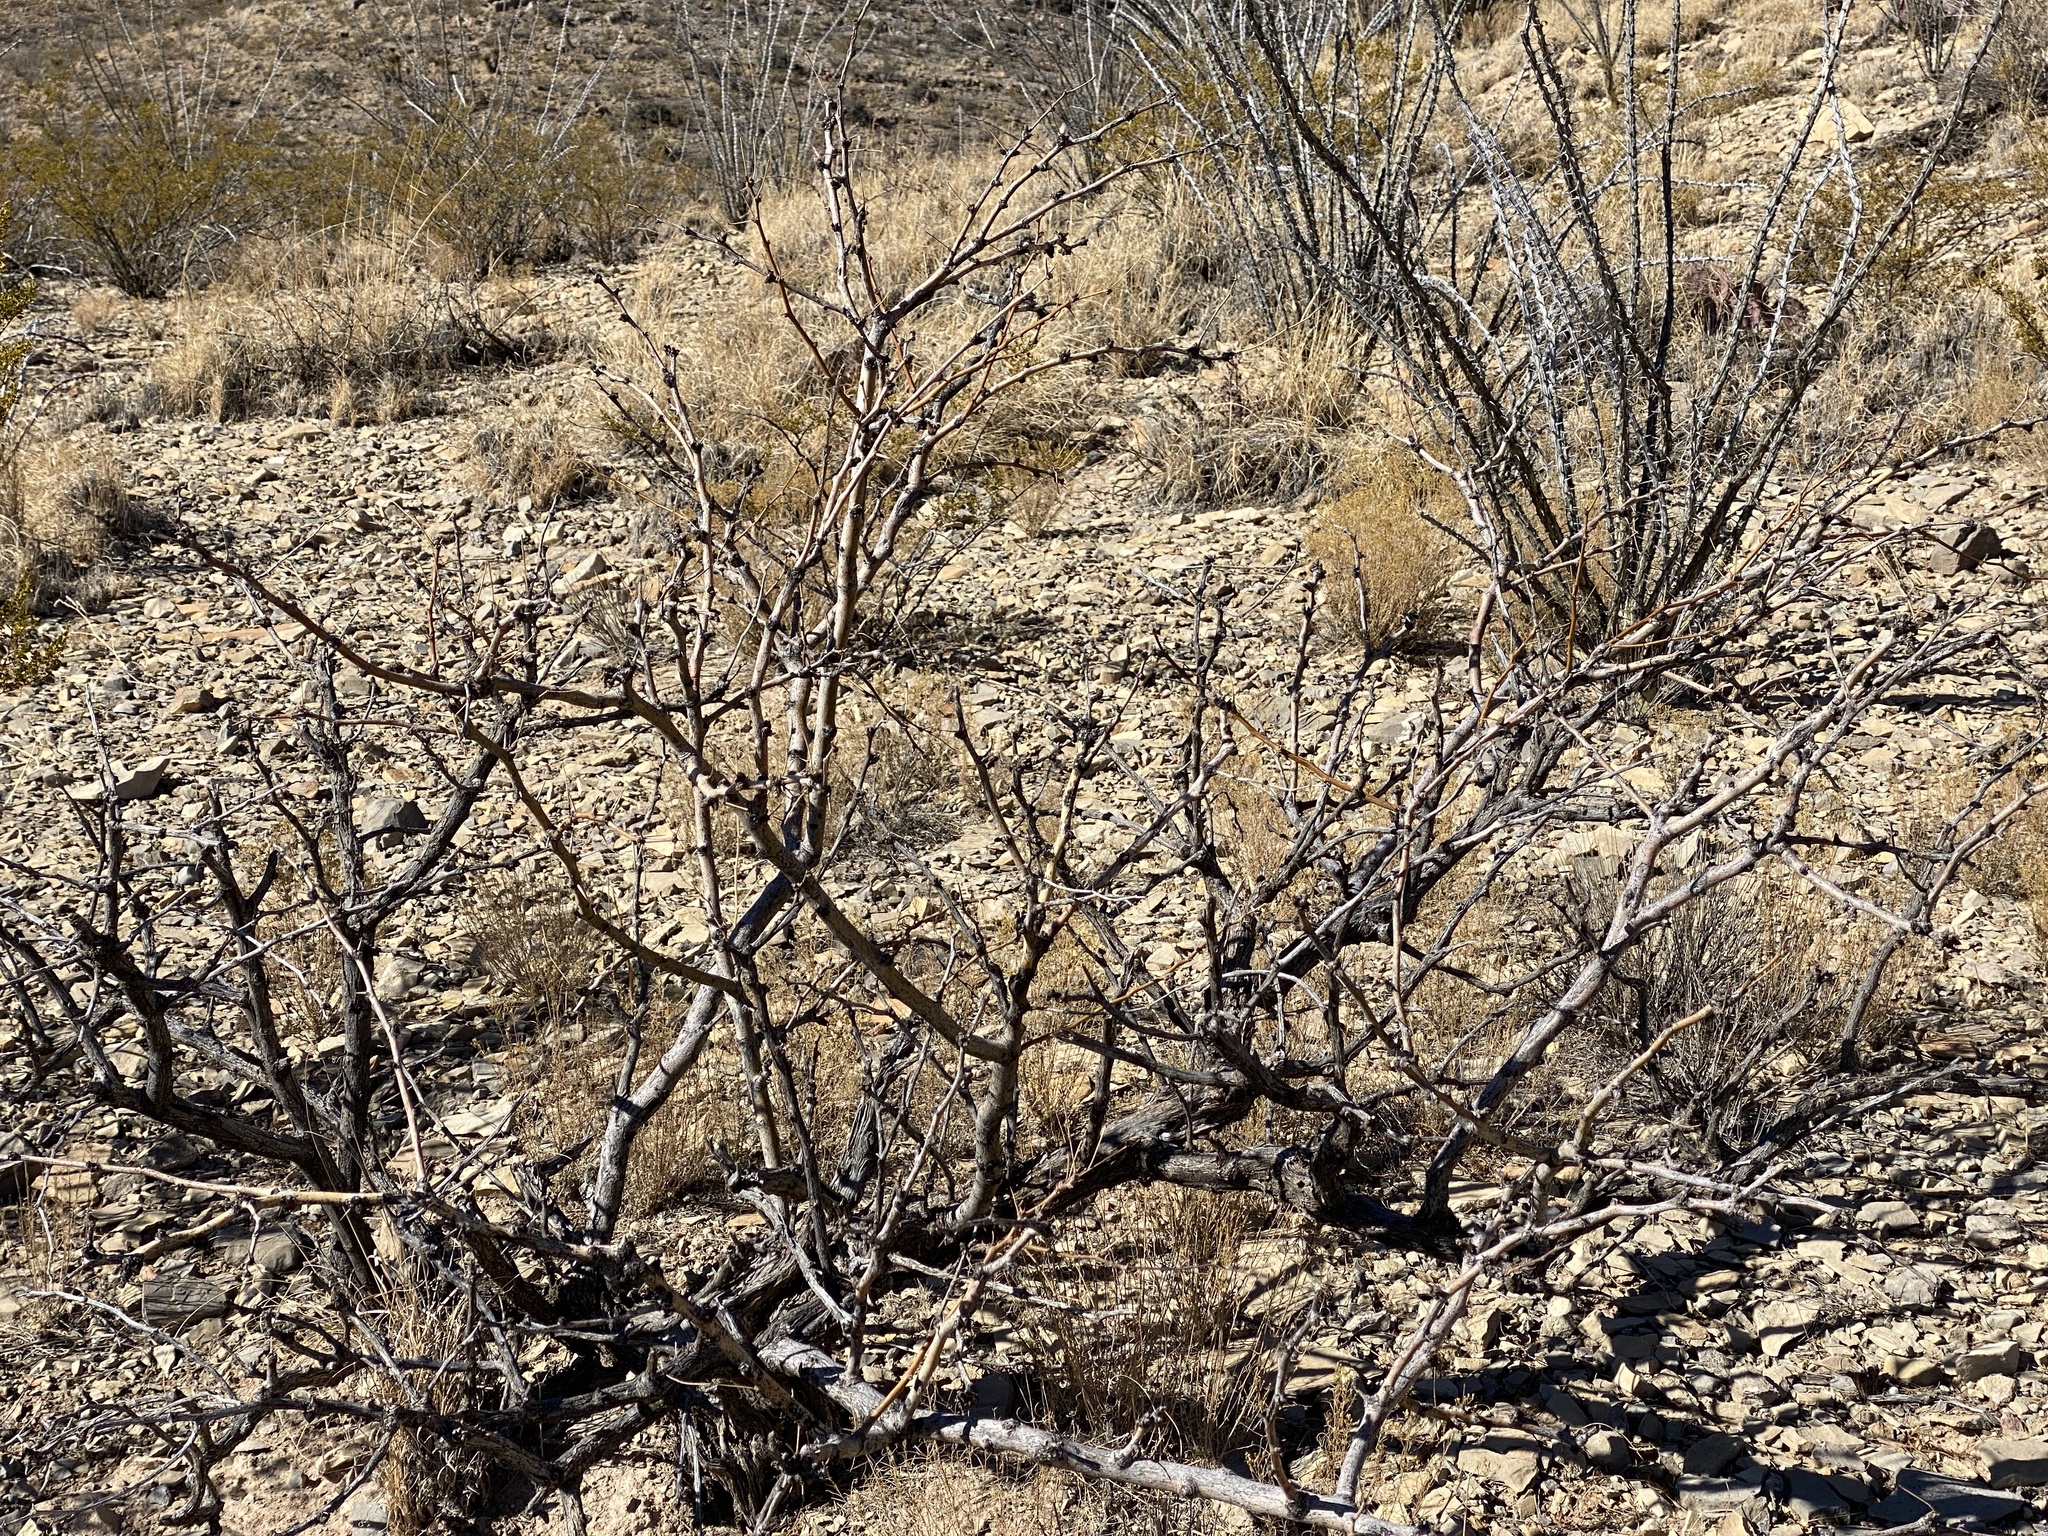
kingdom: Plantae
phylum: Tracheophyta
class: Magnoliopsida
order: Fabales
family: Fabaceae
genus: Prosopis
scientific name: Prosopis glandulosa
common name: Honey mesquite
